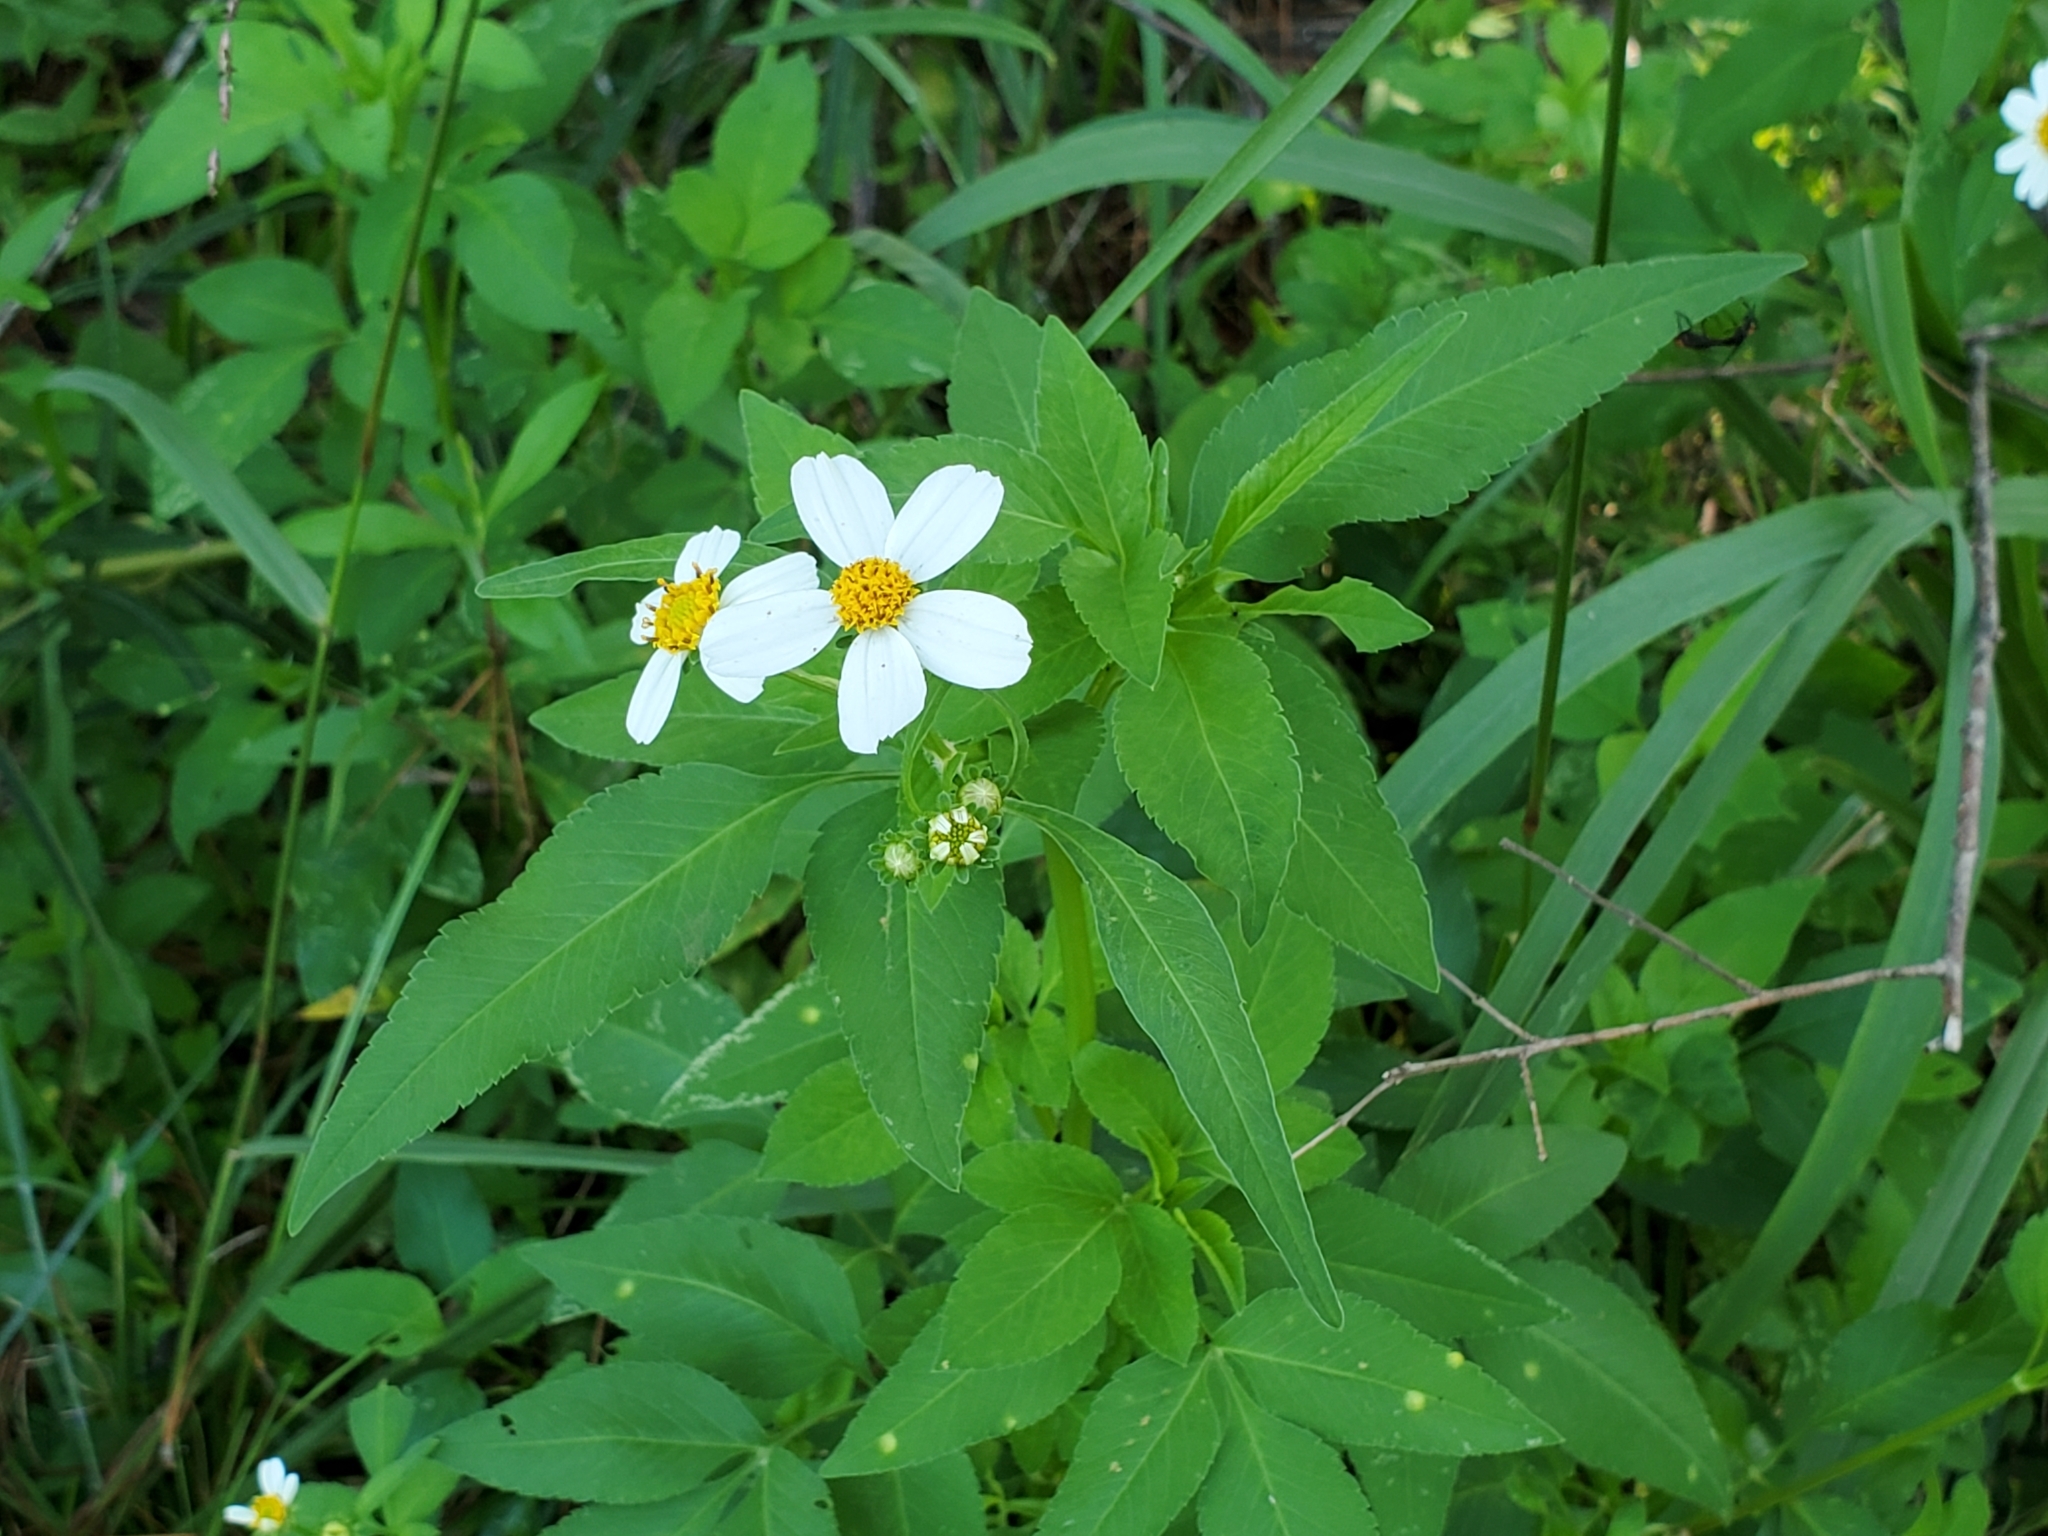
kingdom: Plantae
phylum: Tracheophyta
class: Magnoliopsida
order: Asterales
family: Asteraceae
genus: Bidens
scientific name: Bidens alba
